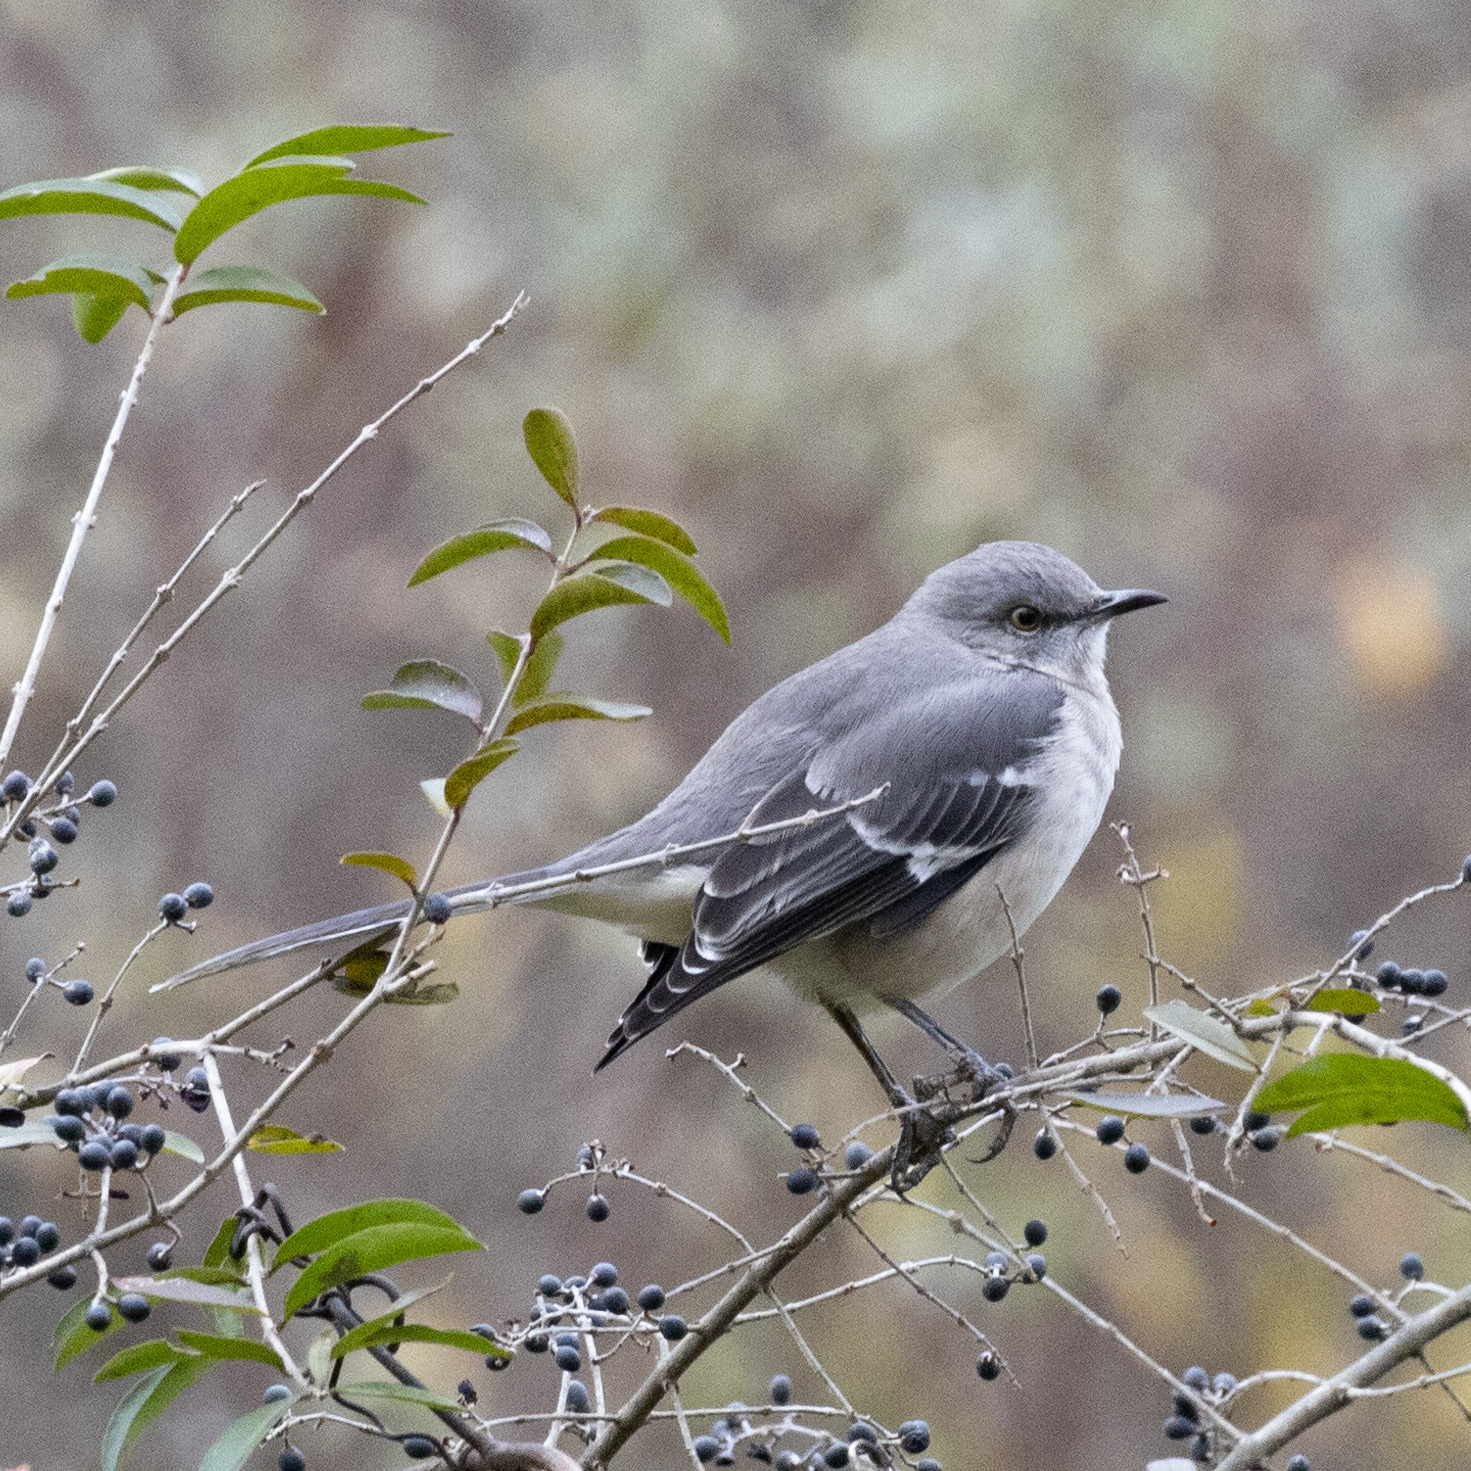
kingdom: Animalia
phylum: Chordata
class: Aves
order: Passeriformes
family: Mimidae
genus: Mimus
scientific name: Mimus polyglottos
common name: Northern mockingbird
